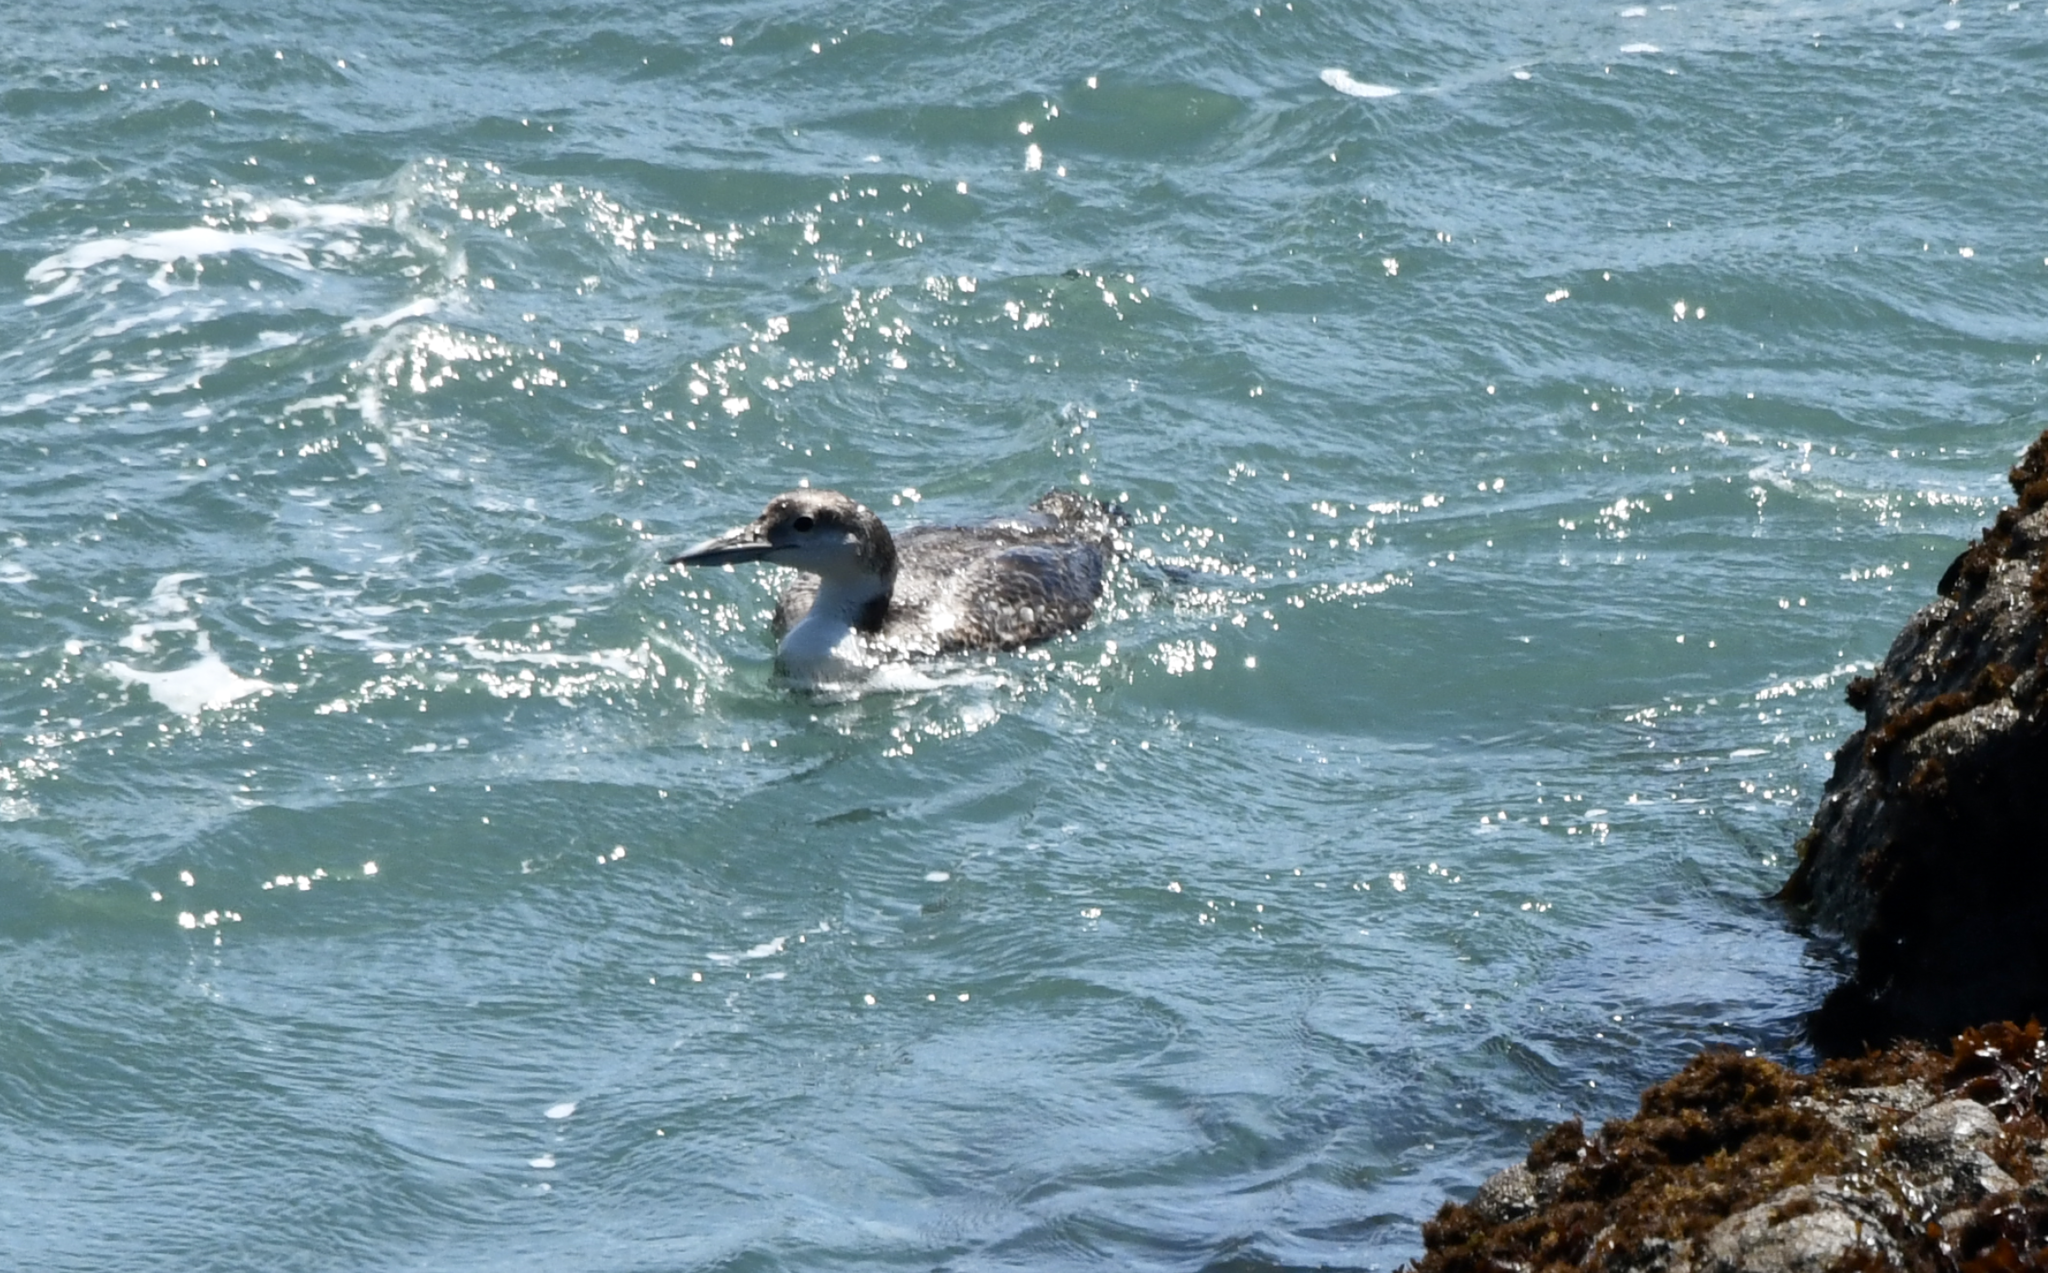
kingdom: Animalia
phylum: Chordata
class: Aves
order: Gaviiformes
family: Gaviidae
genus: Gavia
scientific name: Gavia immer
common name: Common loon
